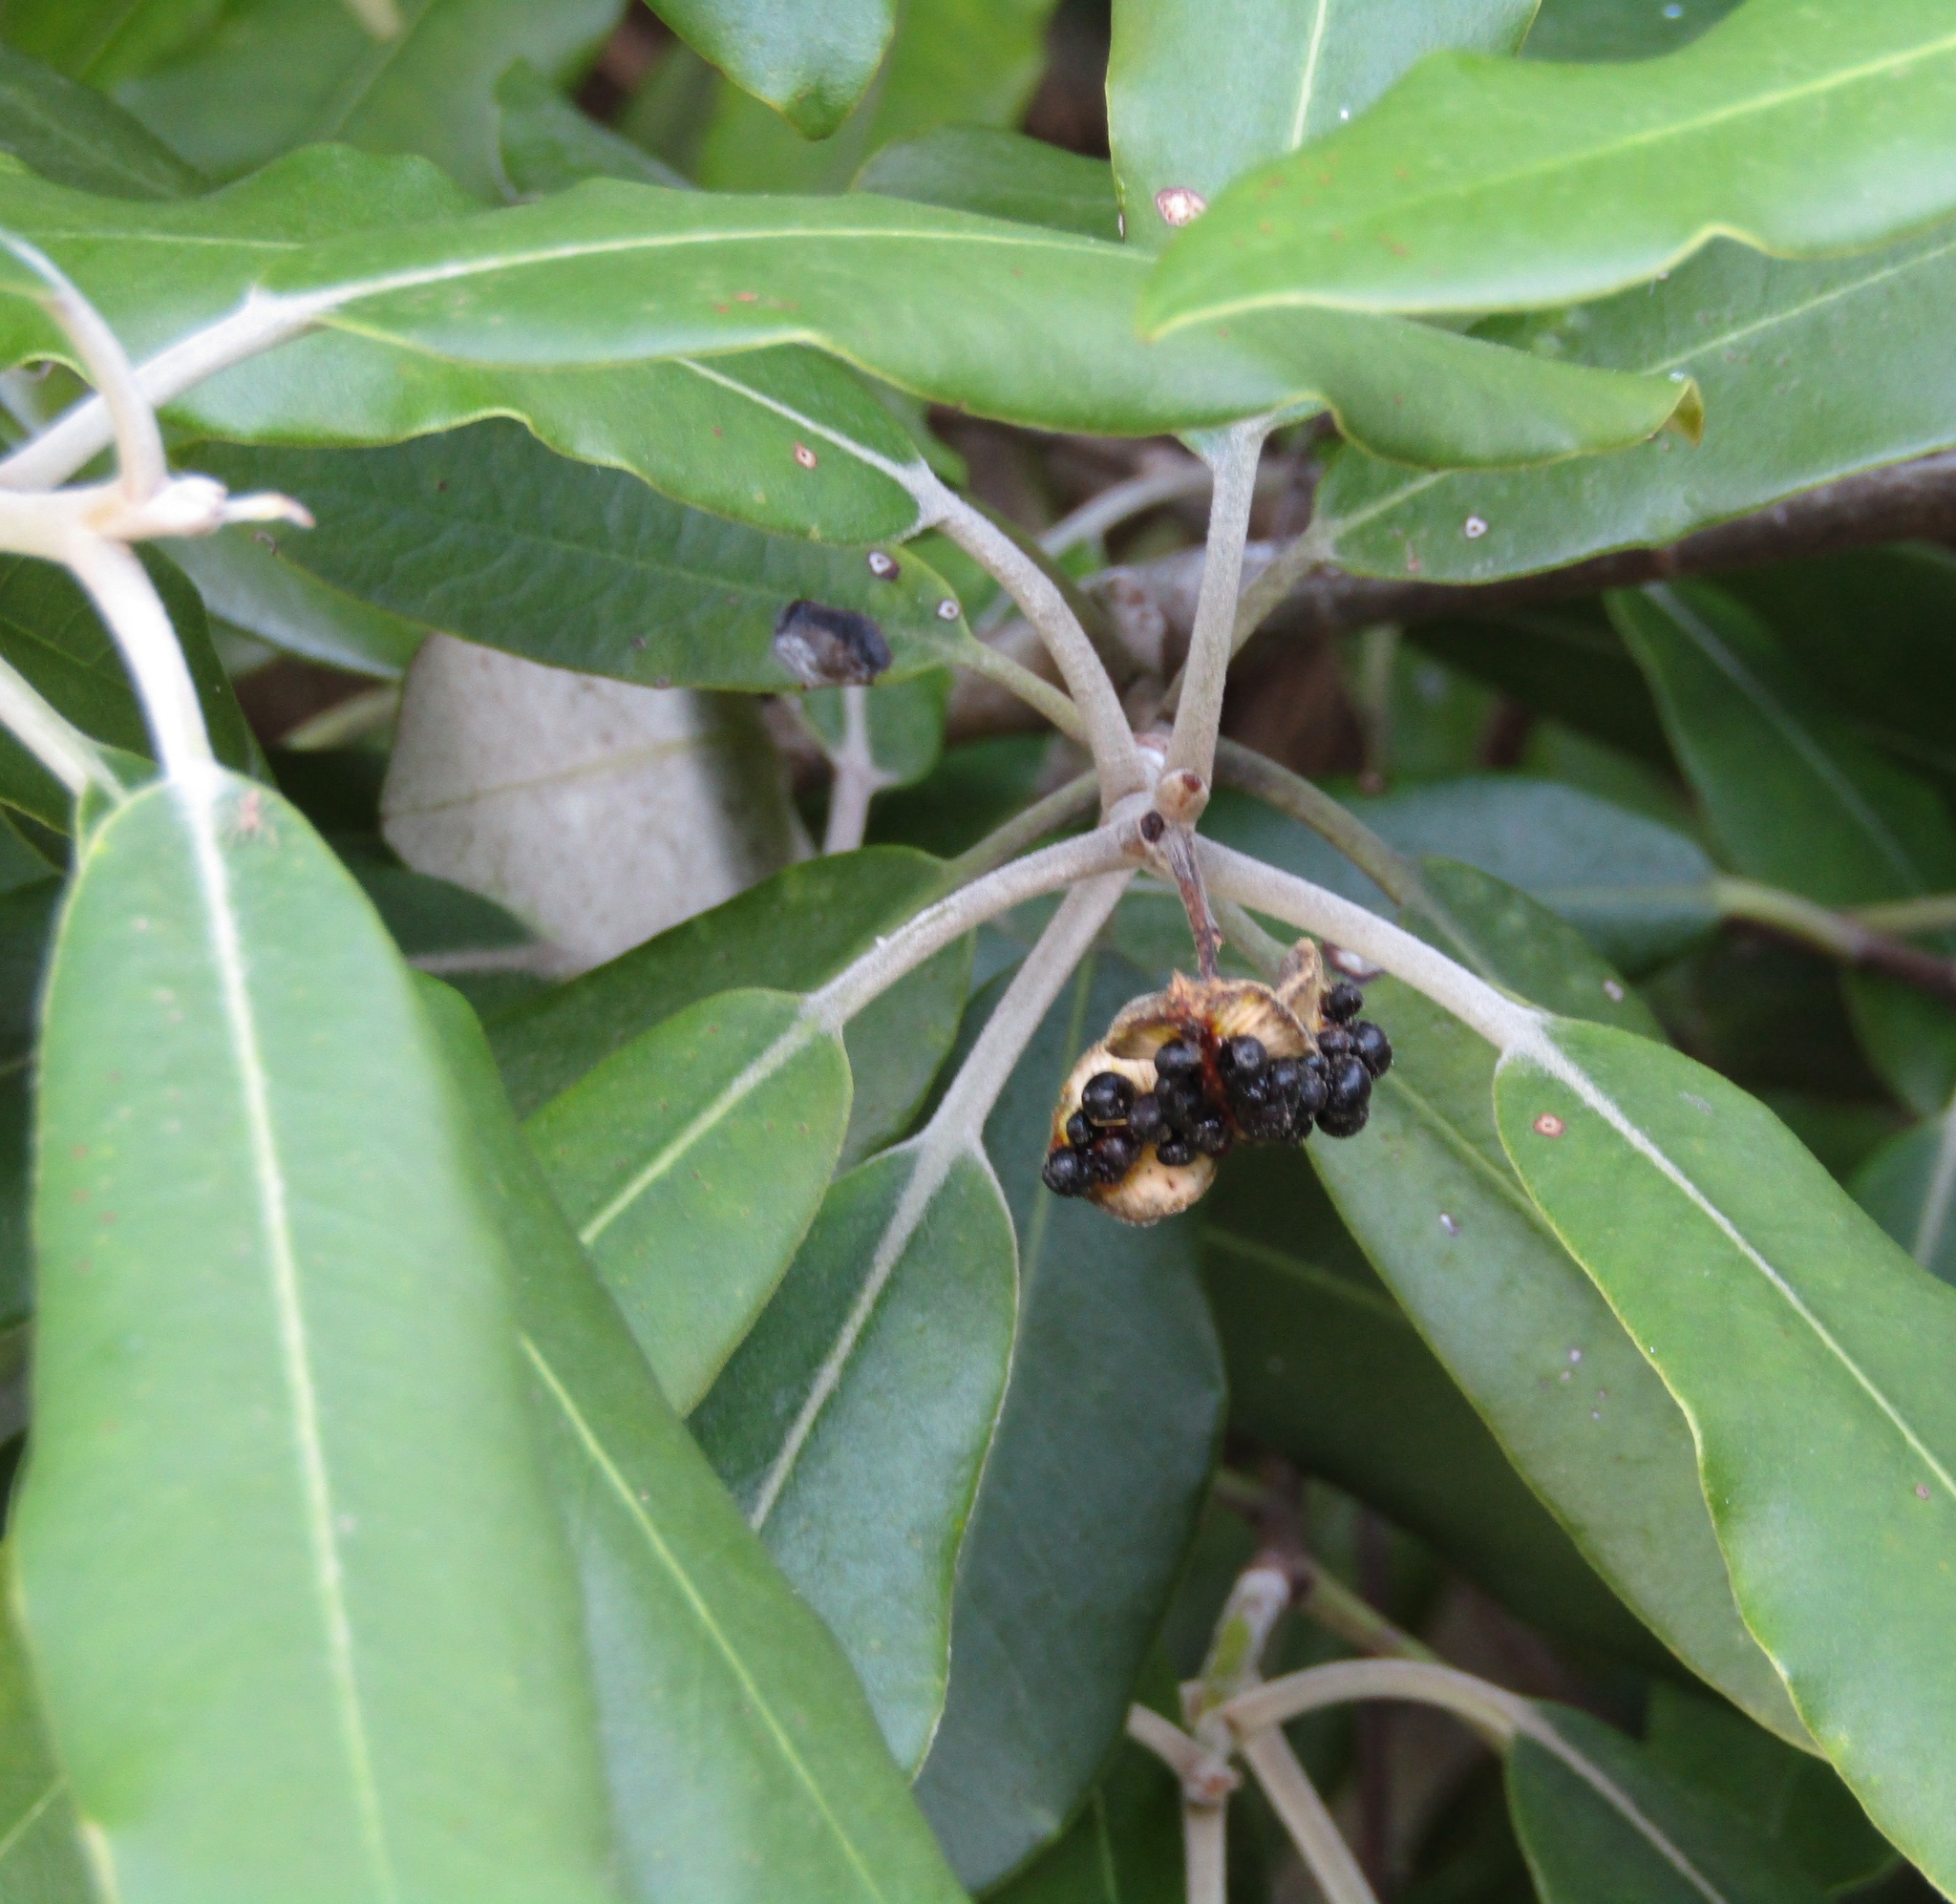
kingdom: Plantae
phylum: Tracheophyta
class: Magnoliopsida
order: Apiales
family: Pittosporaceae
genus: Pittosporum
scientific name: Pittosporum ralphii
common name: Ralph's desertwillow
